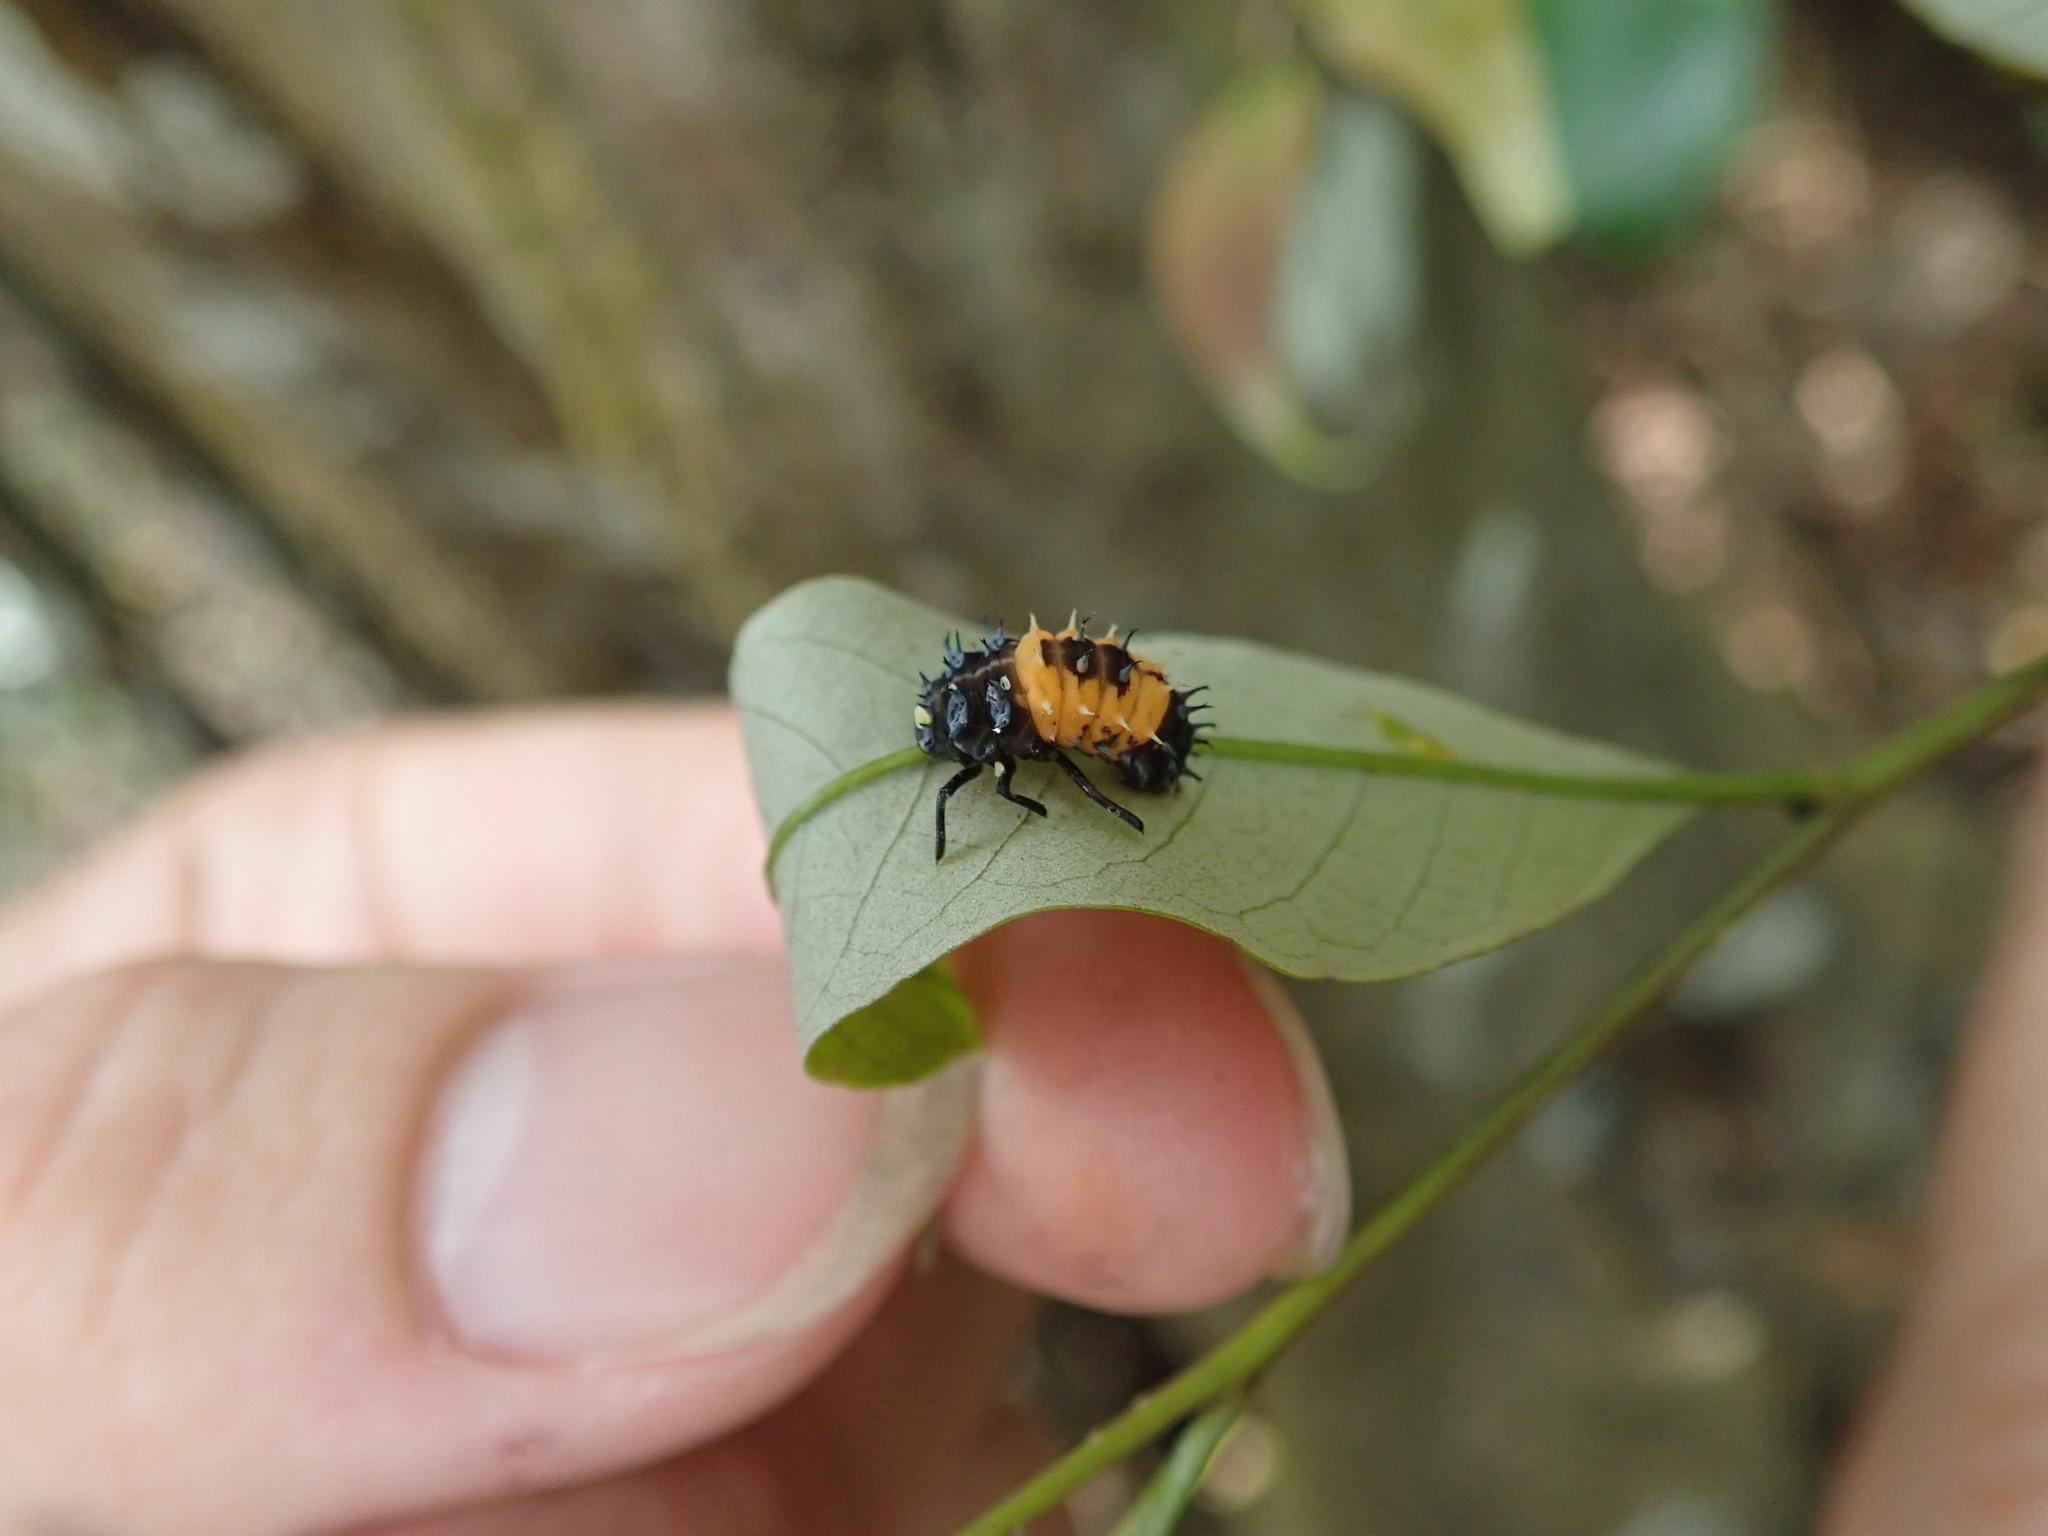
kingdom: Animalia
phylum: Arthropoda
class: Insecta
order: Coleoptera
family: Coccinellidae
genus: Harmonia
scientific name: Harmonia dimidiata
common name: Ladybird beetle
